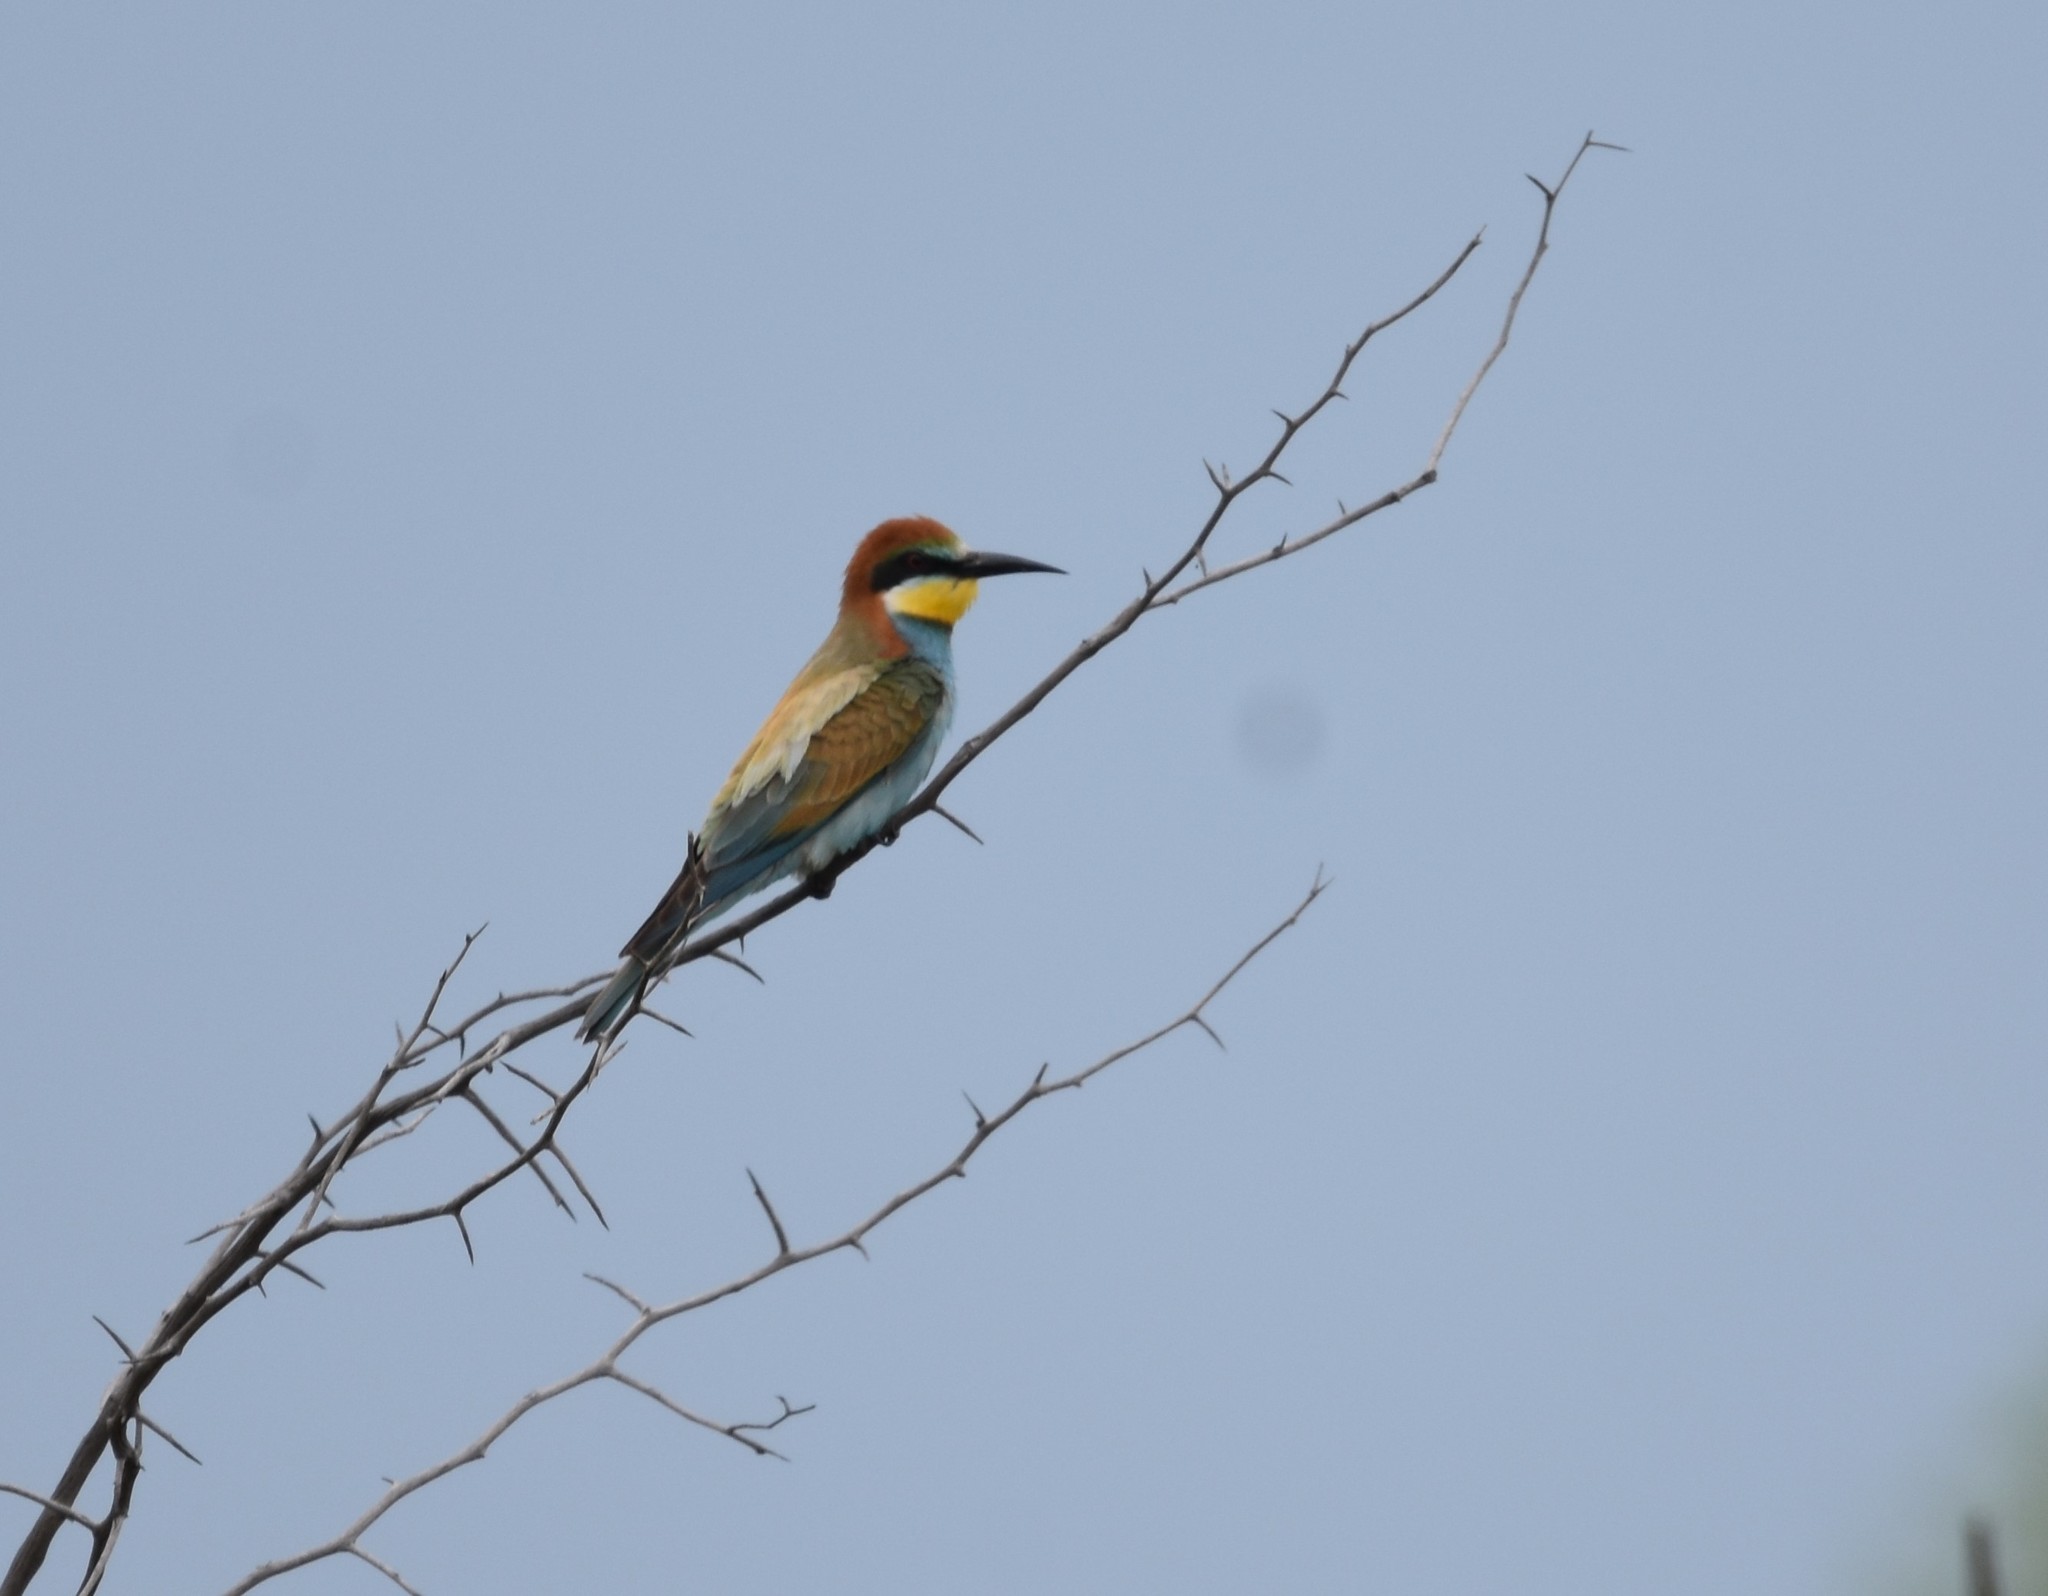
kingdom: Animalia
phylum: Chordata
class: Aves
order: Coraciiformes
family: Meropidae
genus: Merops
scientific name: Merops apiaster
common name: European bee-eater
